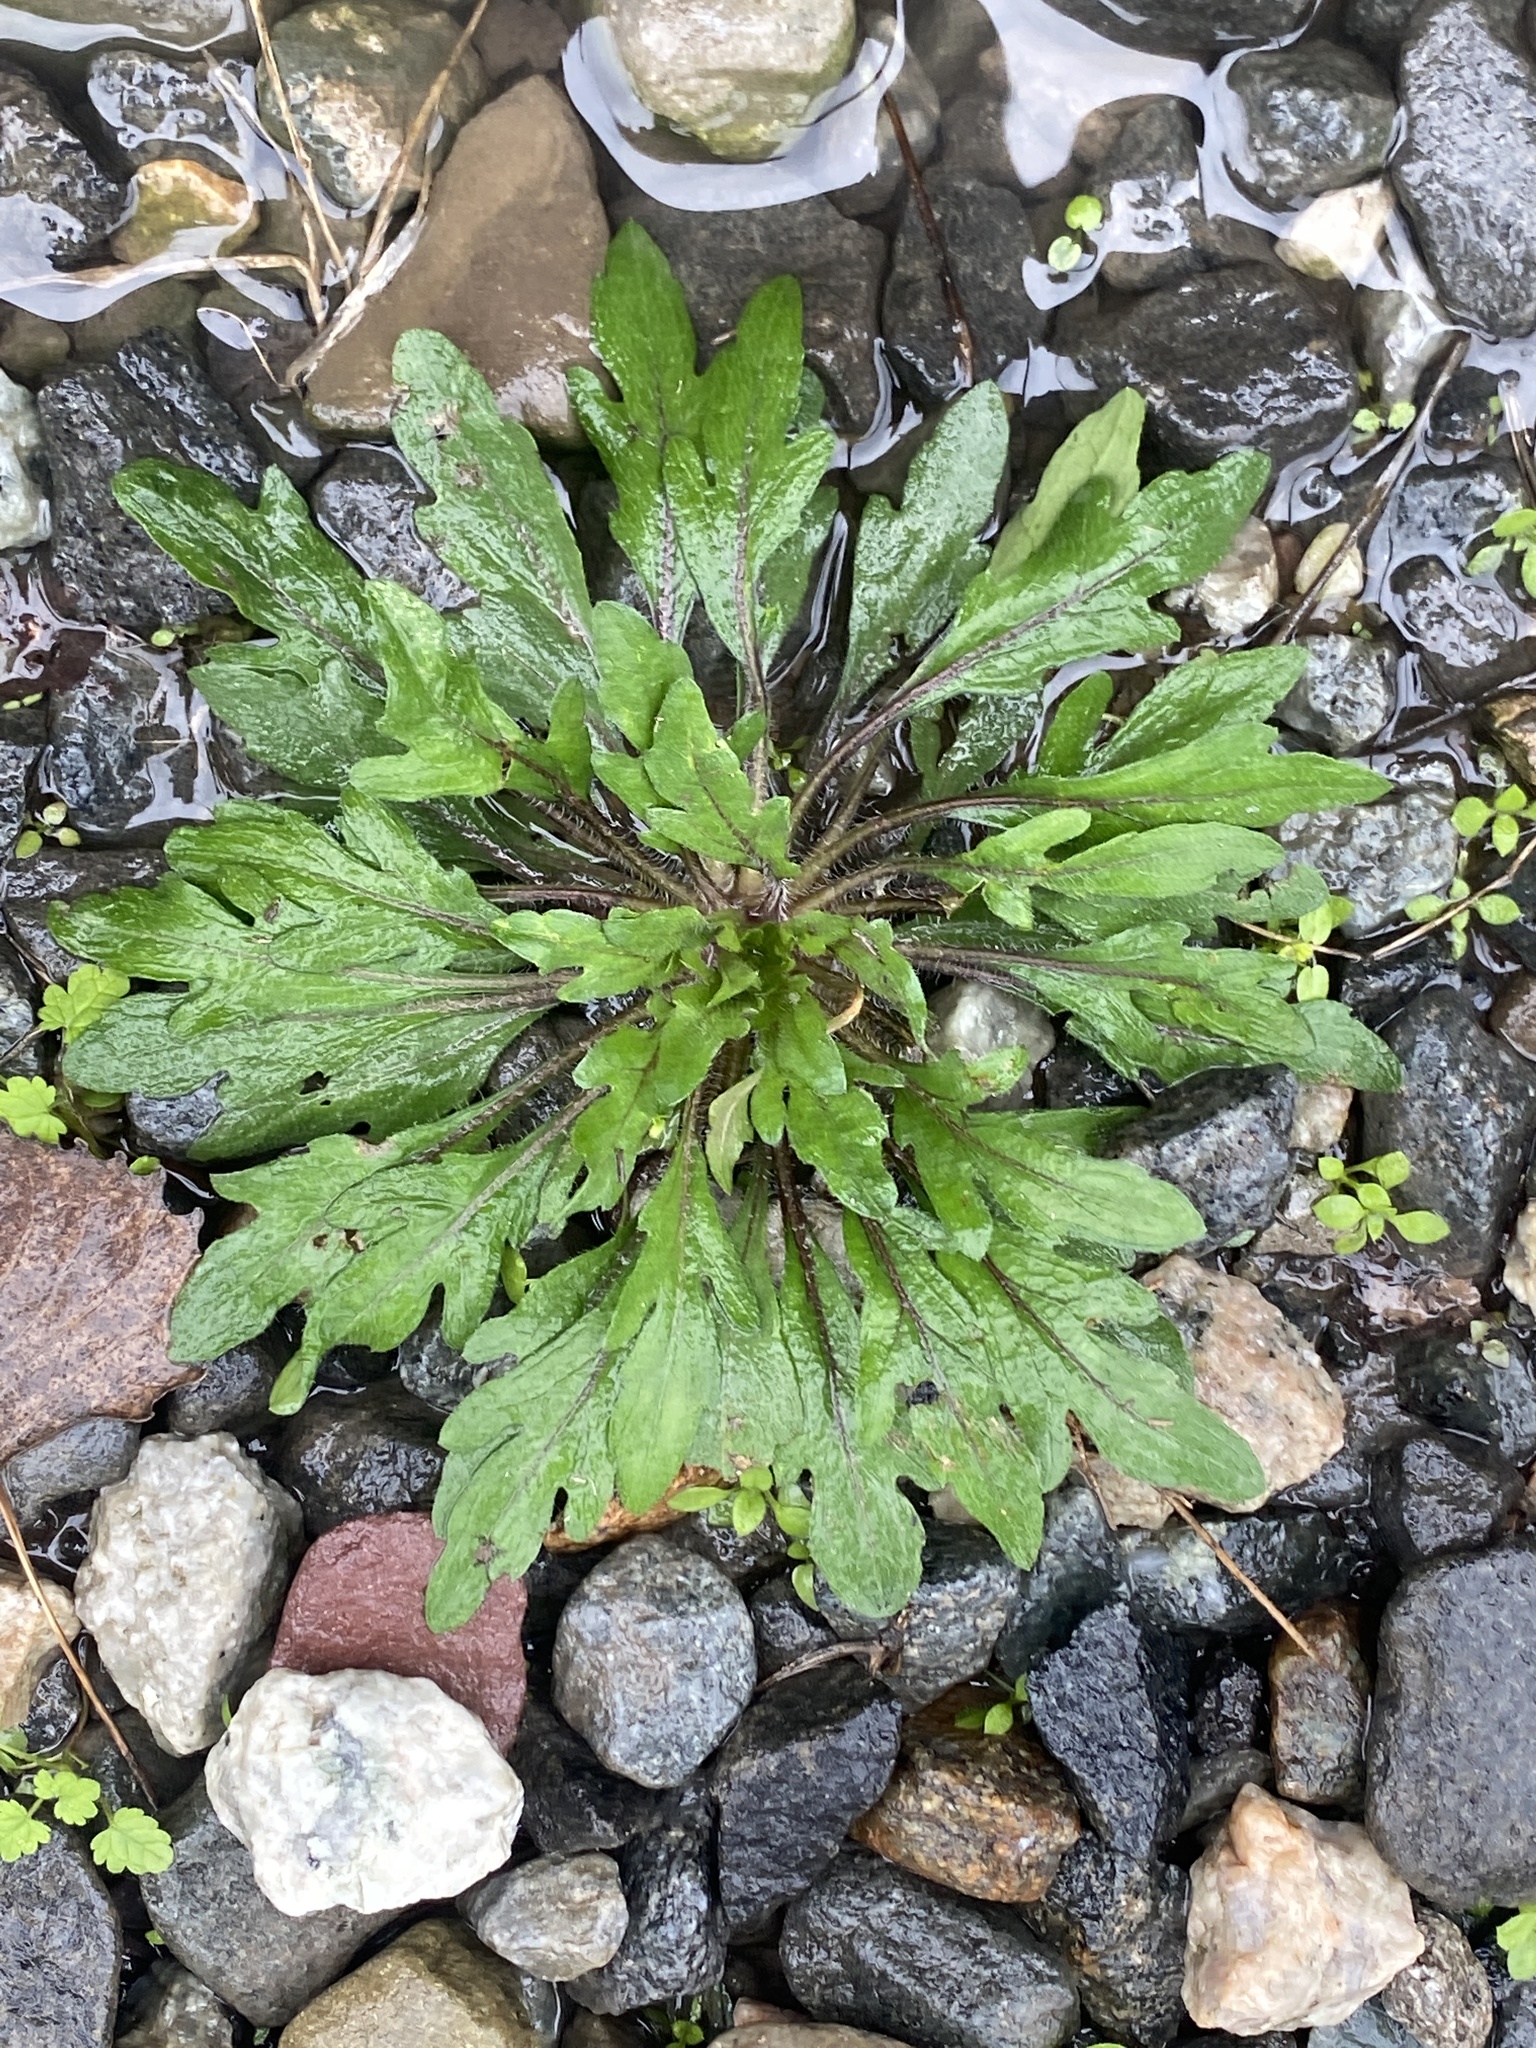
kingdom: Plantae
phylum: Tracheophyta
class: Magnoliopsida
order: Asterales
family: Asteraceae
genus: Erigeron
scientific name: Erigeron canadensis
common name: Canadian fleabane
